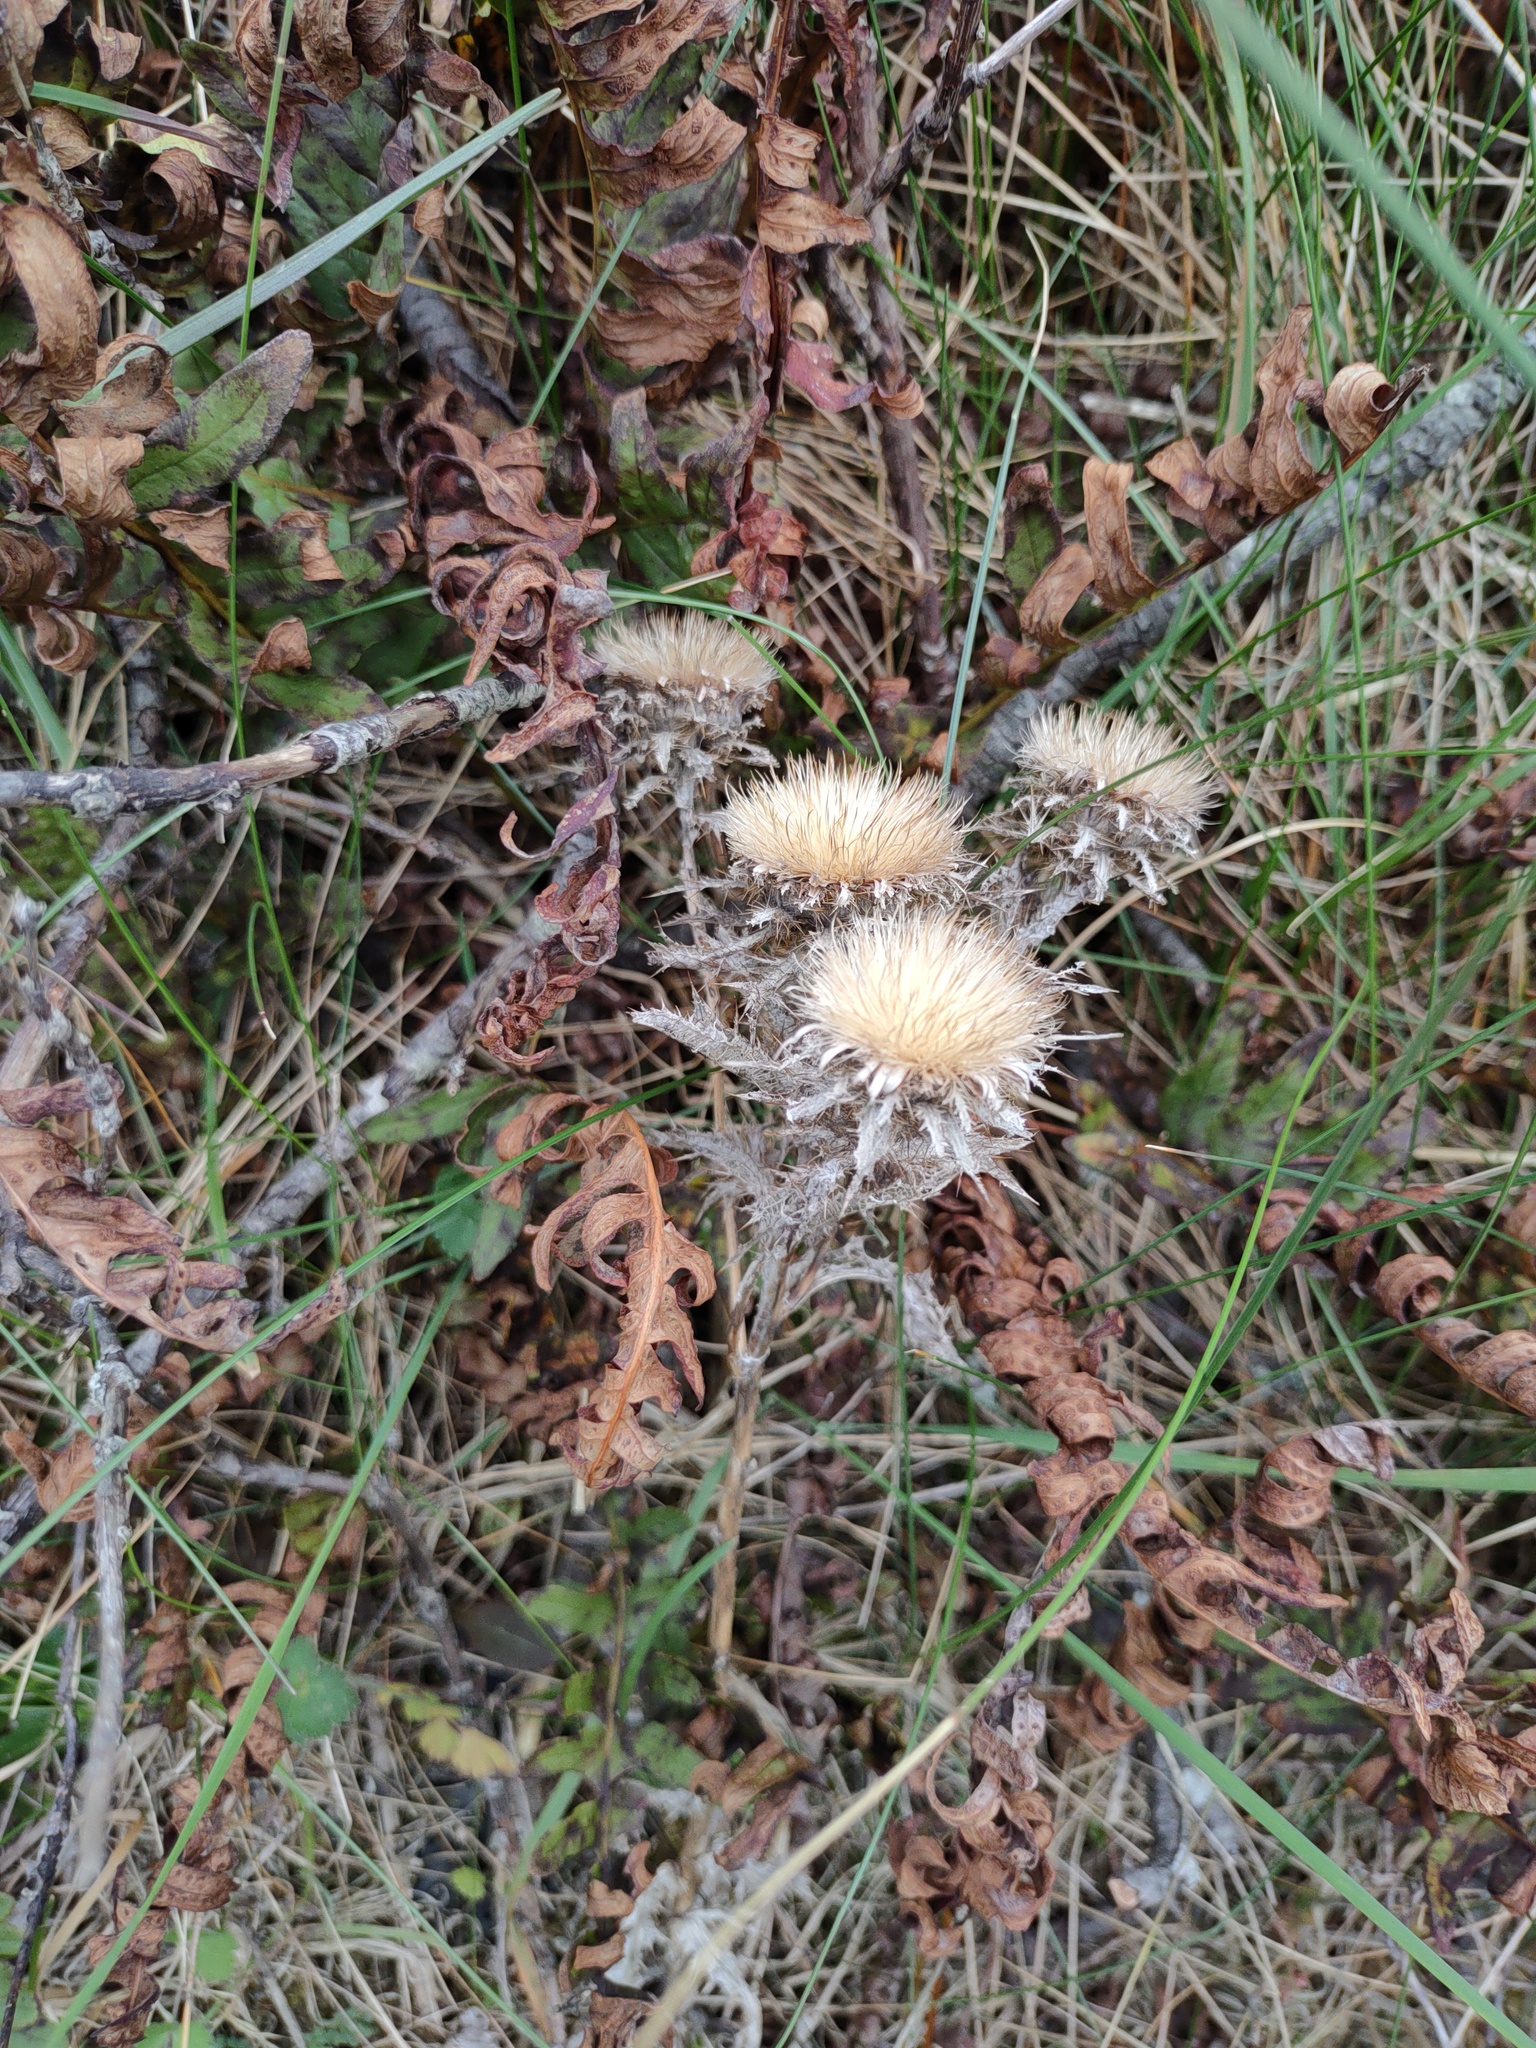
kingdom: Plantae
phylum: Tracheophyta
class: Magnoliopsida
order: Asterales
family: Asteraceae
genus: Carlina
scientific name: Carlina vulgaris
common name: Carline thistle
